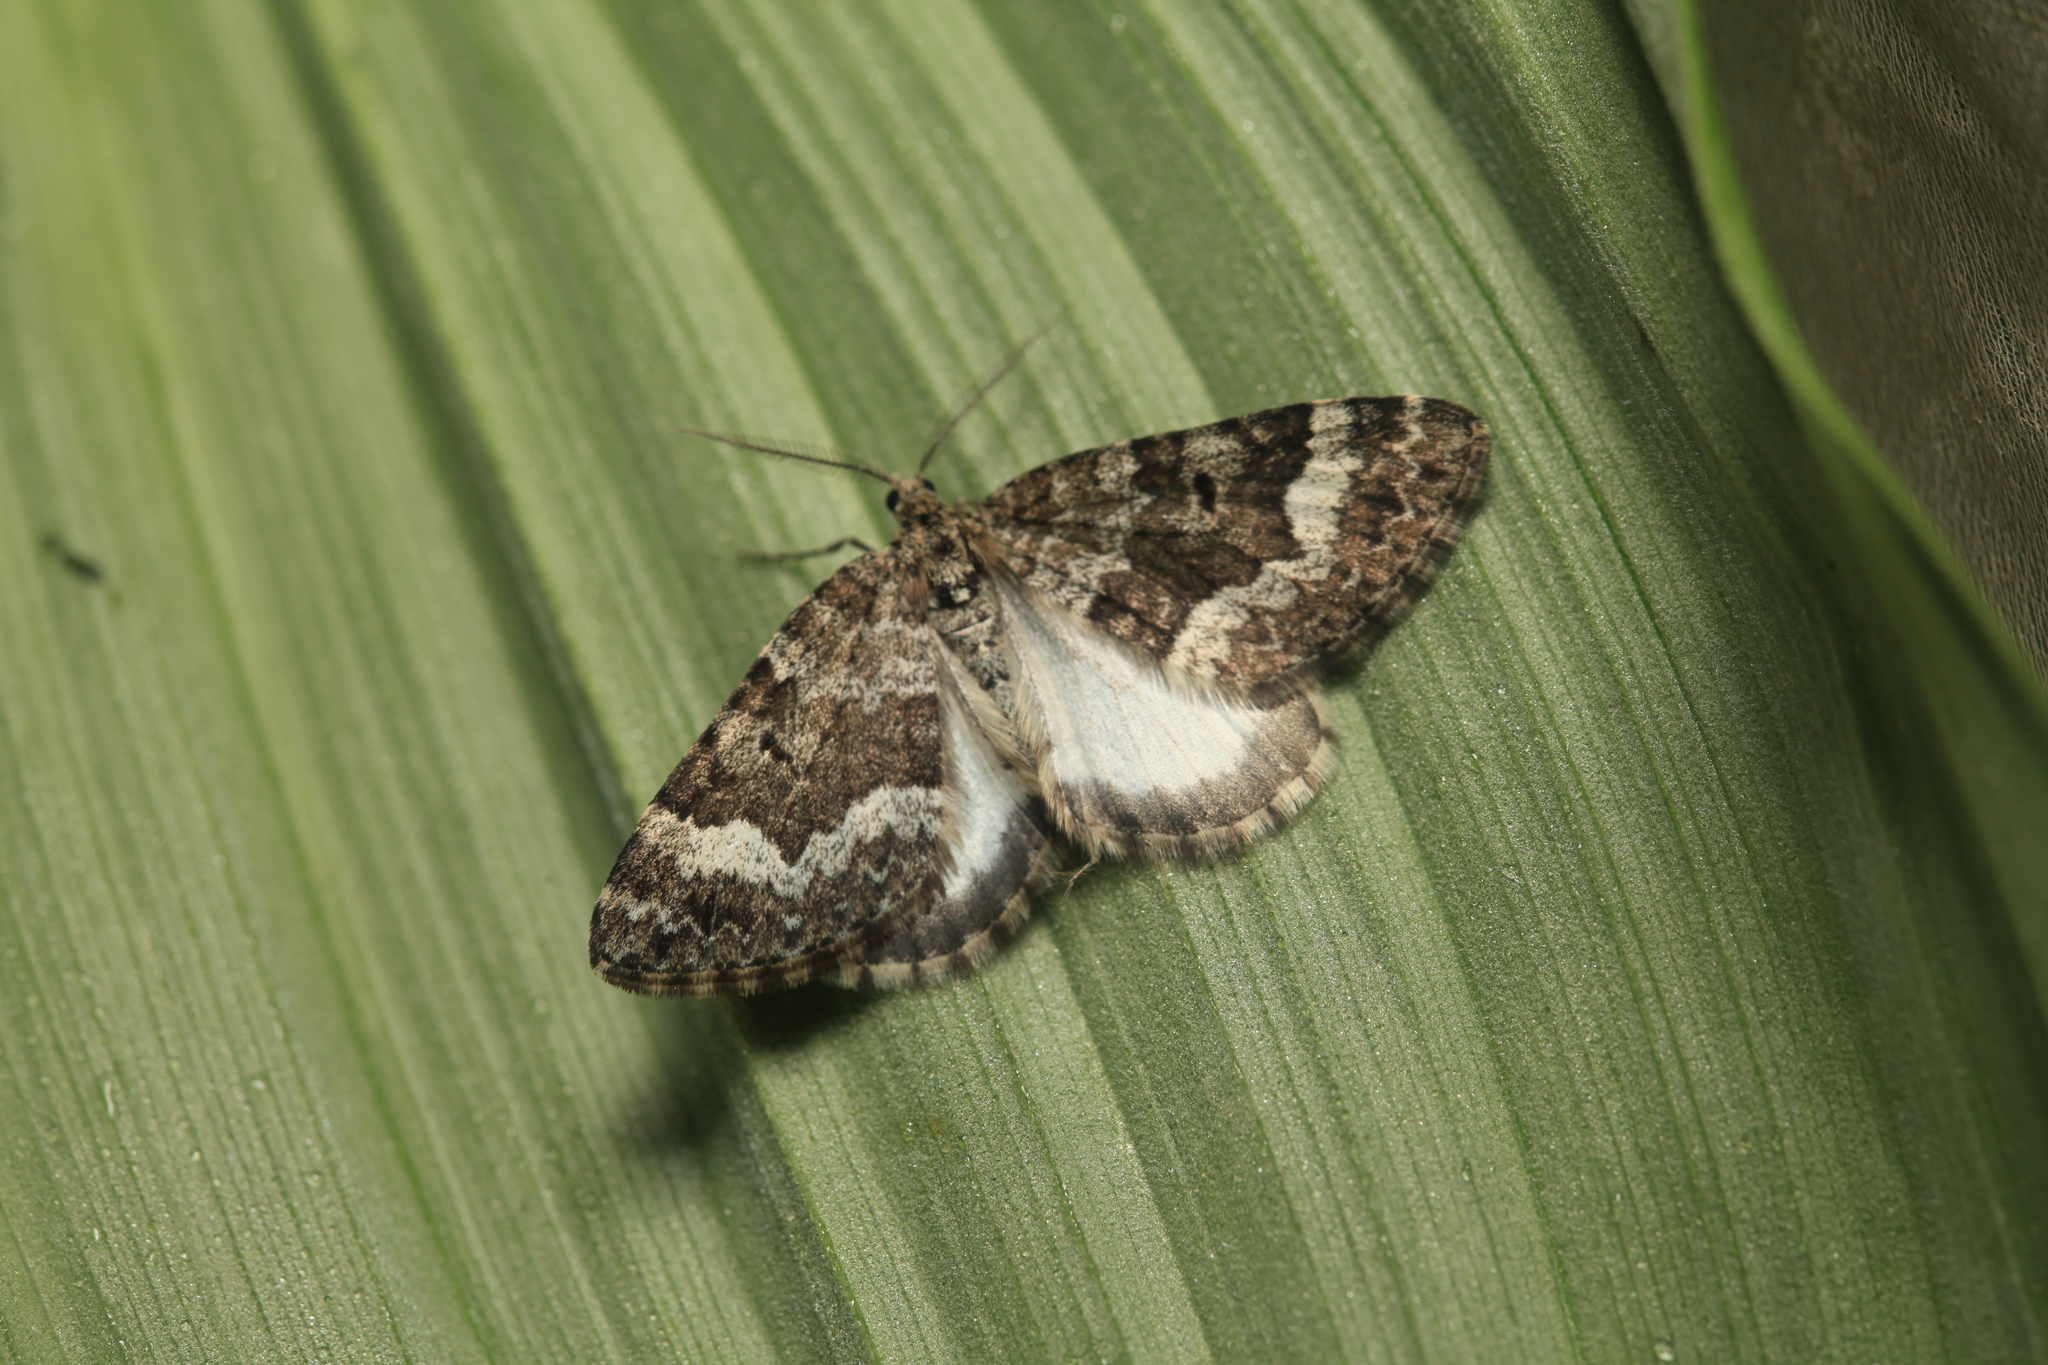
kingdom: Animalia
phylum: Arthropoda
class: Insecta
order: Lepidoptera
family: Geometridae
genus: Colostygia
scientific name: Colostygia turbata
